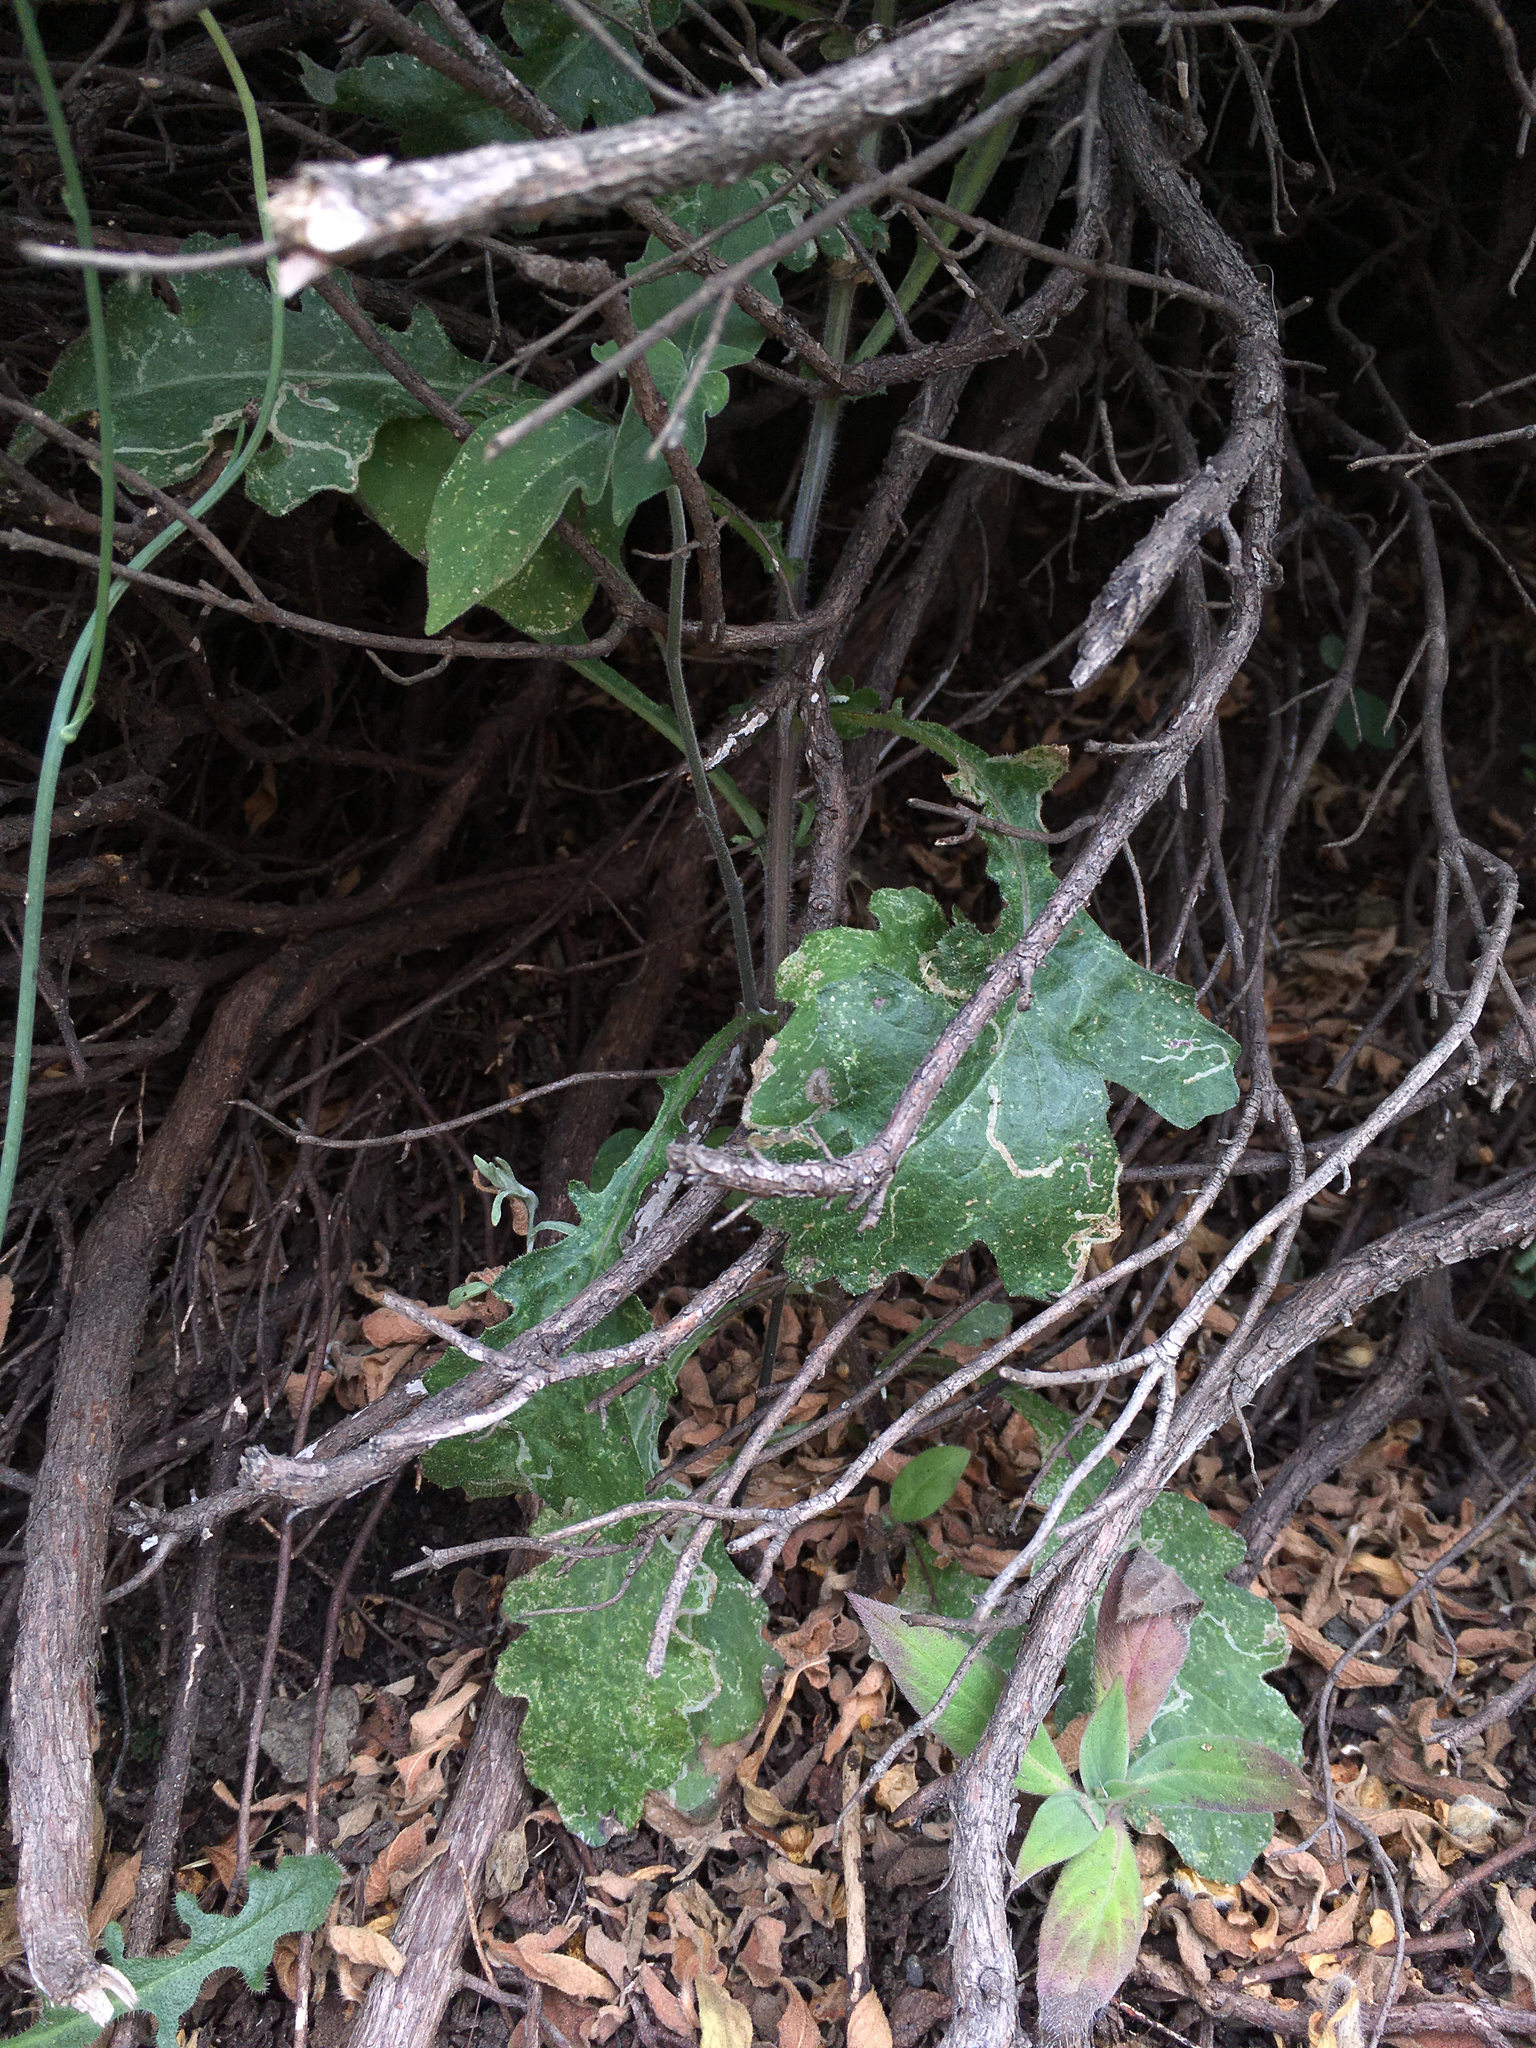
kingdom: Plantae
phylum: Tracheophyta
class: Magnoliopsida
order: Asterales
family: Asteraceae
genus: Senecio
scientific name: Senecio glomeratus
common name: Cutleaf burnweed
